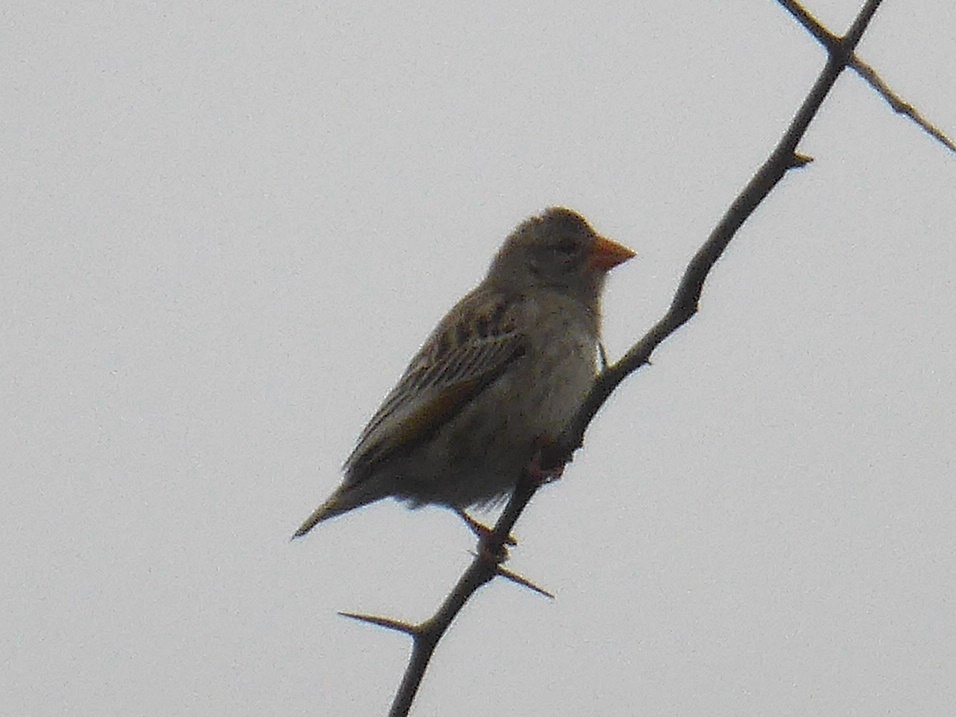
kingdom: Animalia
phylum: Chordata
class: Aves
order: Passeriformes
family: Ploceidae
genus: Quelea
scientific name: Quelea quelea
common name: Red-billed quelea
